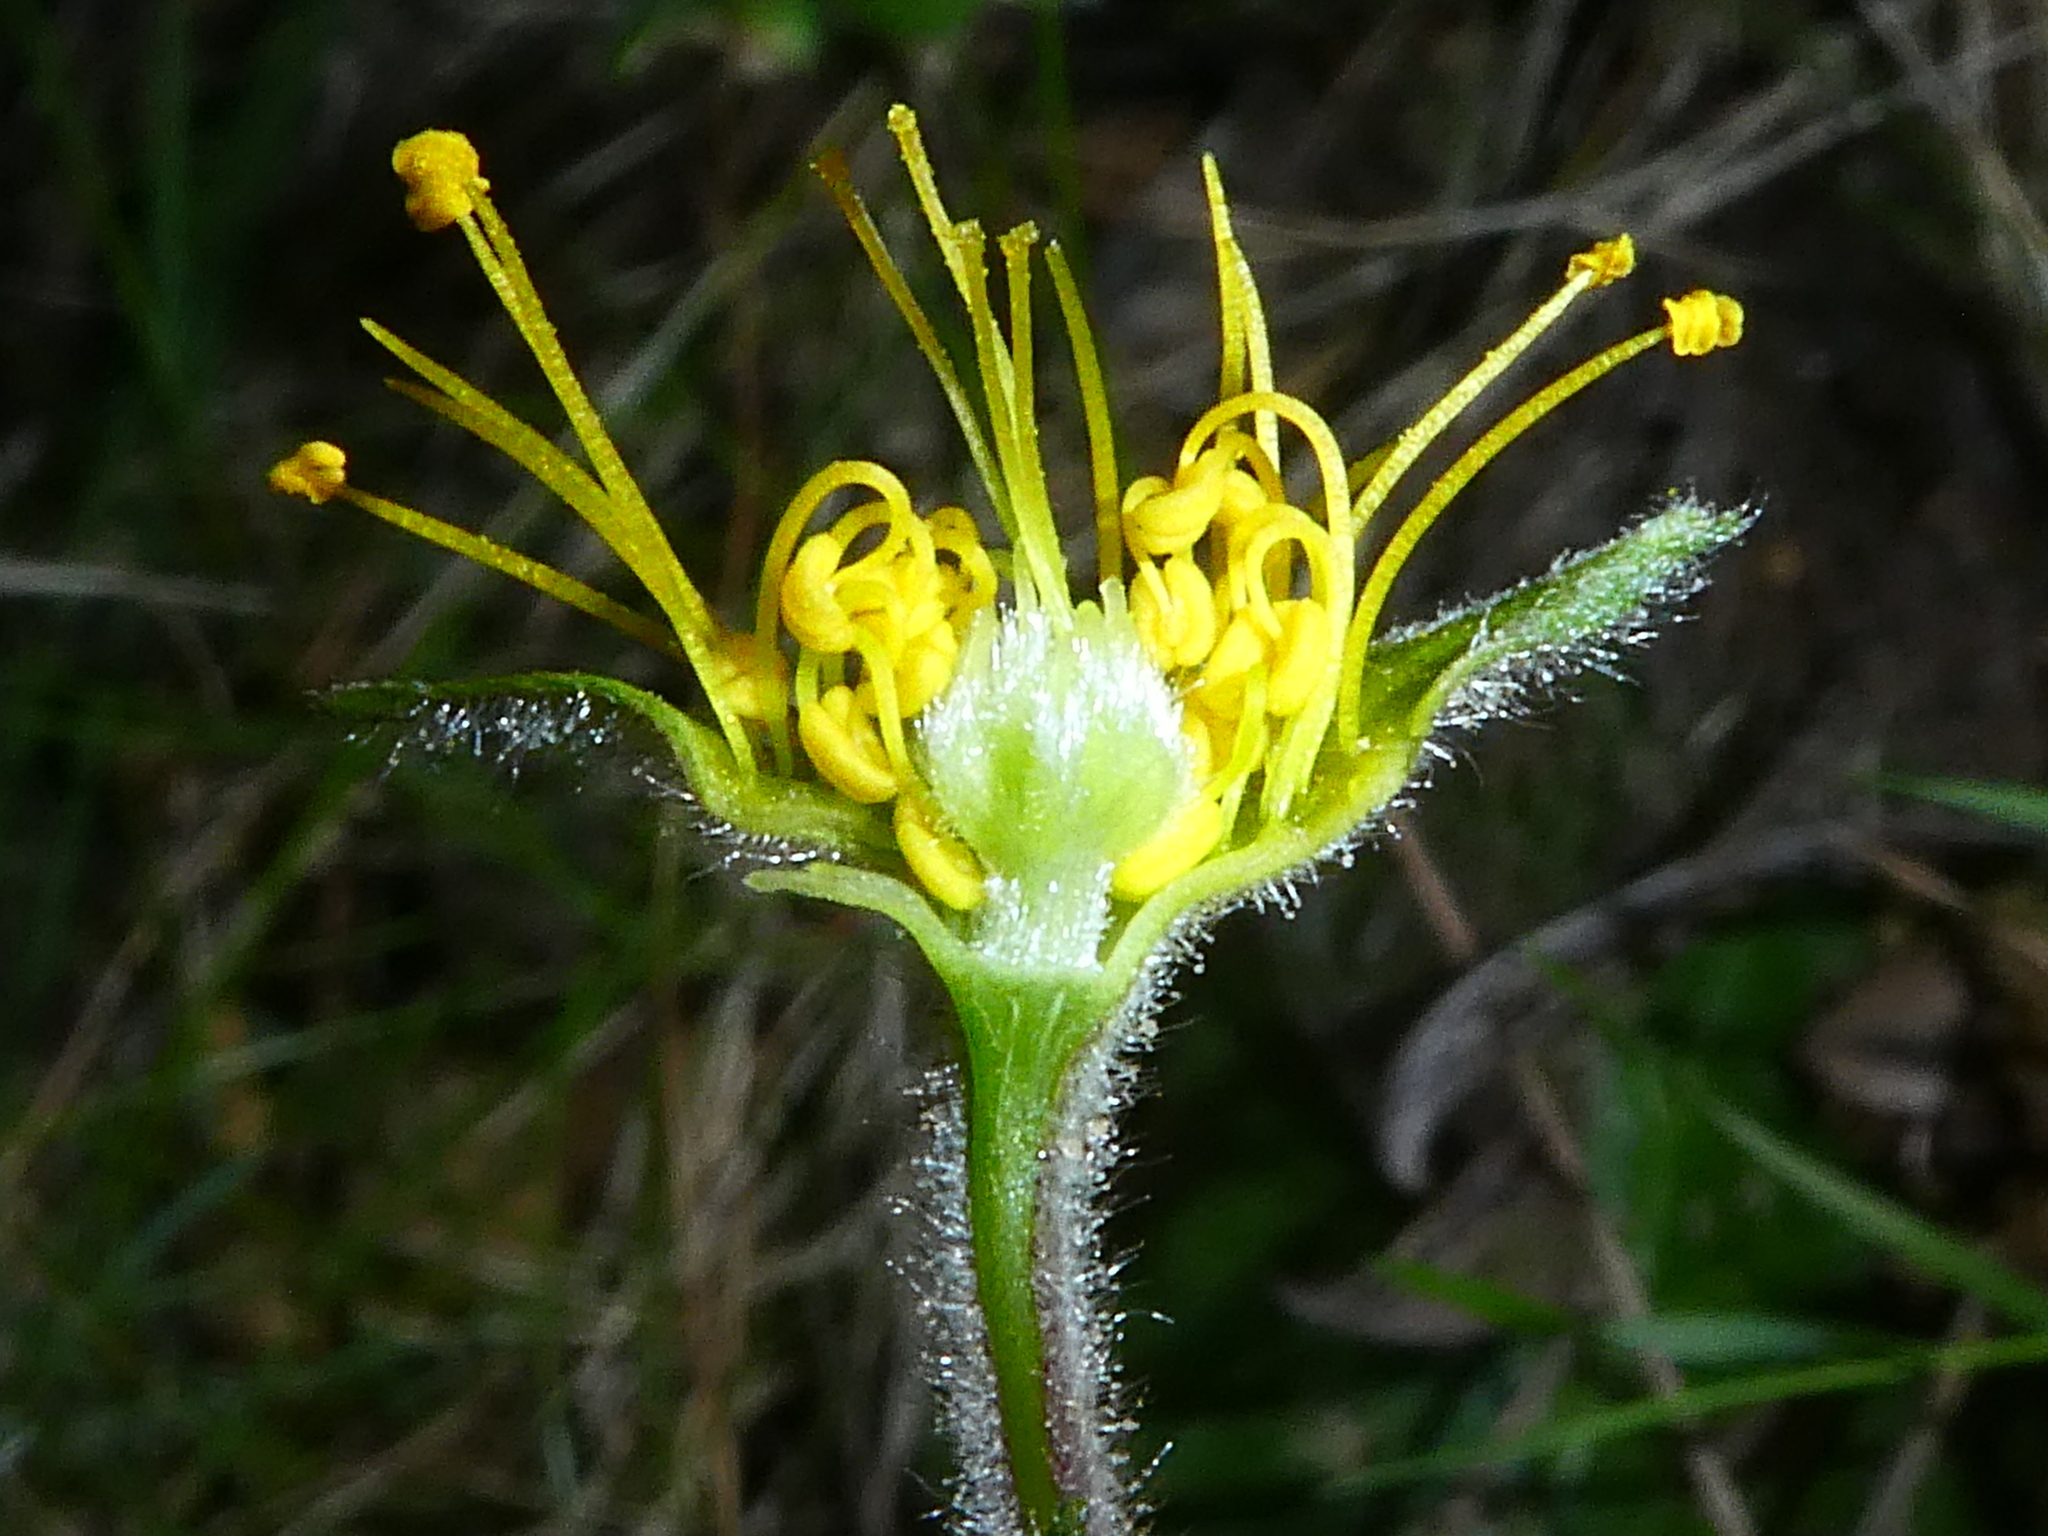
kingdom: Plantae
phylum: Tracheophyta
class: Magnoliopsida
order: Rosales
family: Rosaceae
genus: Geum
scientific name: Geum sylvaticum
